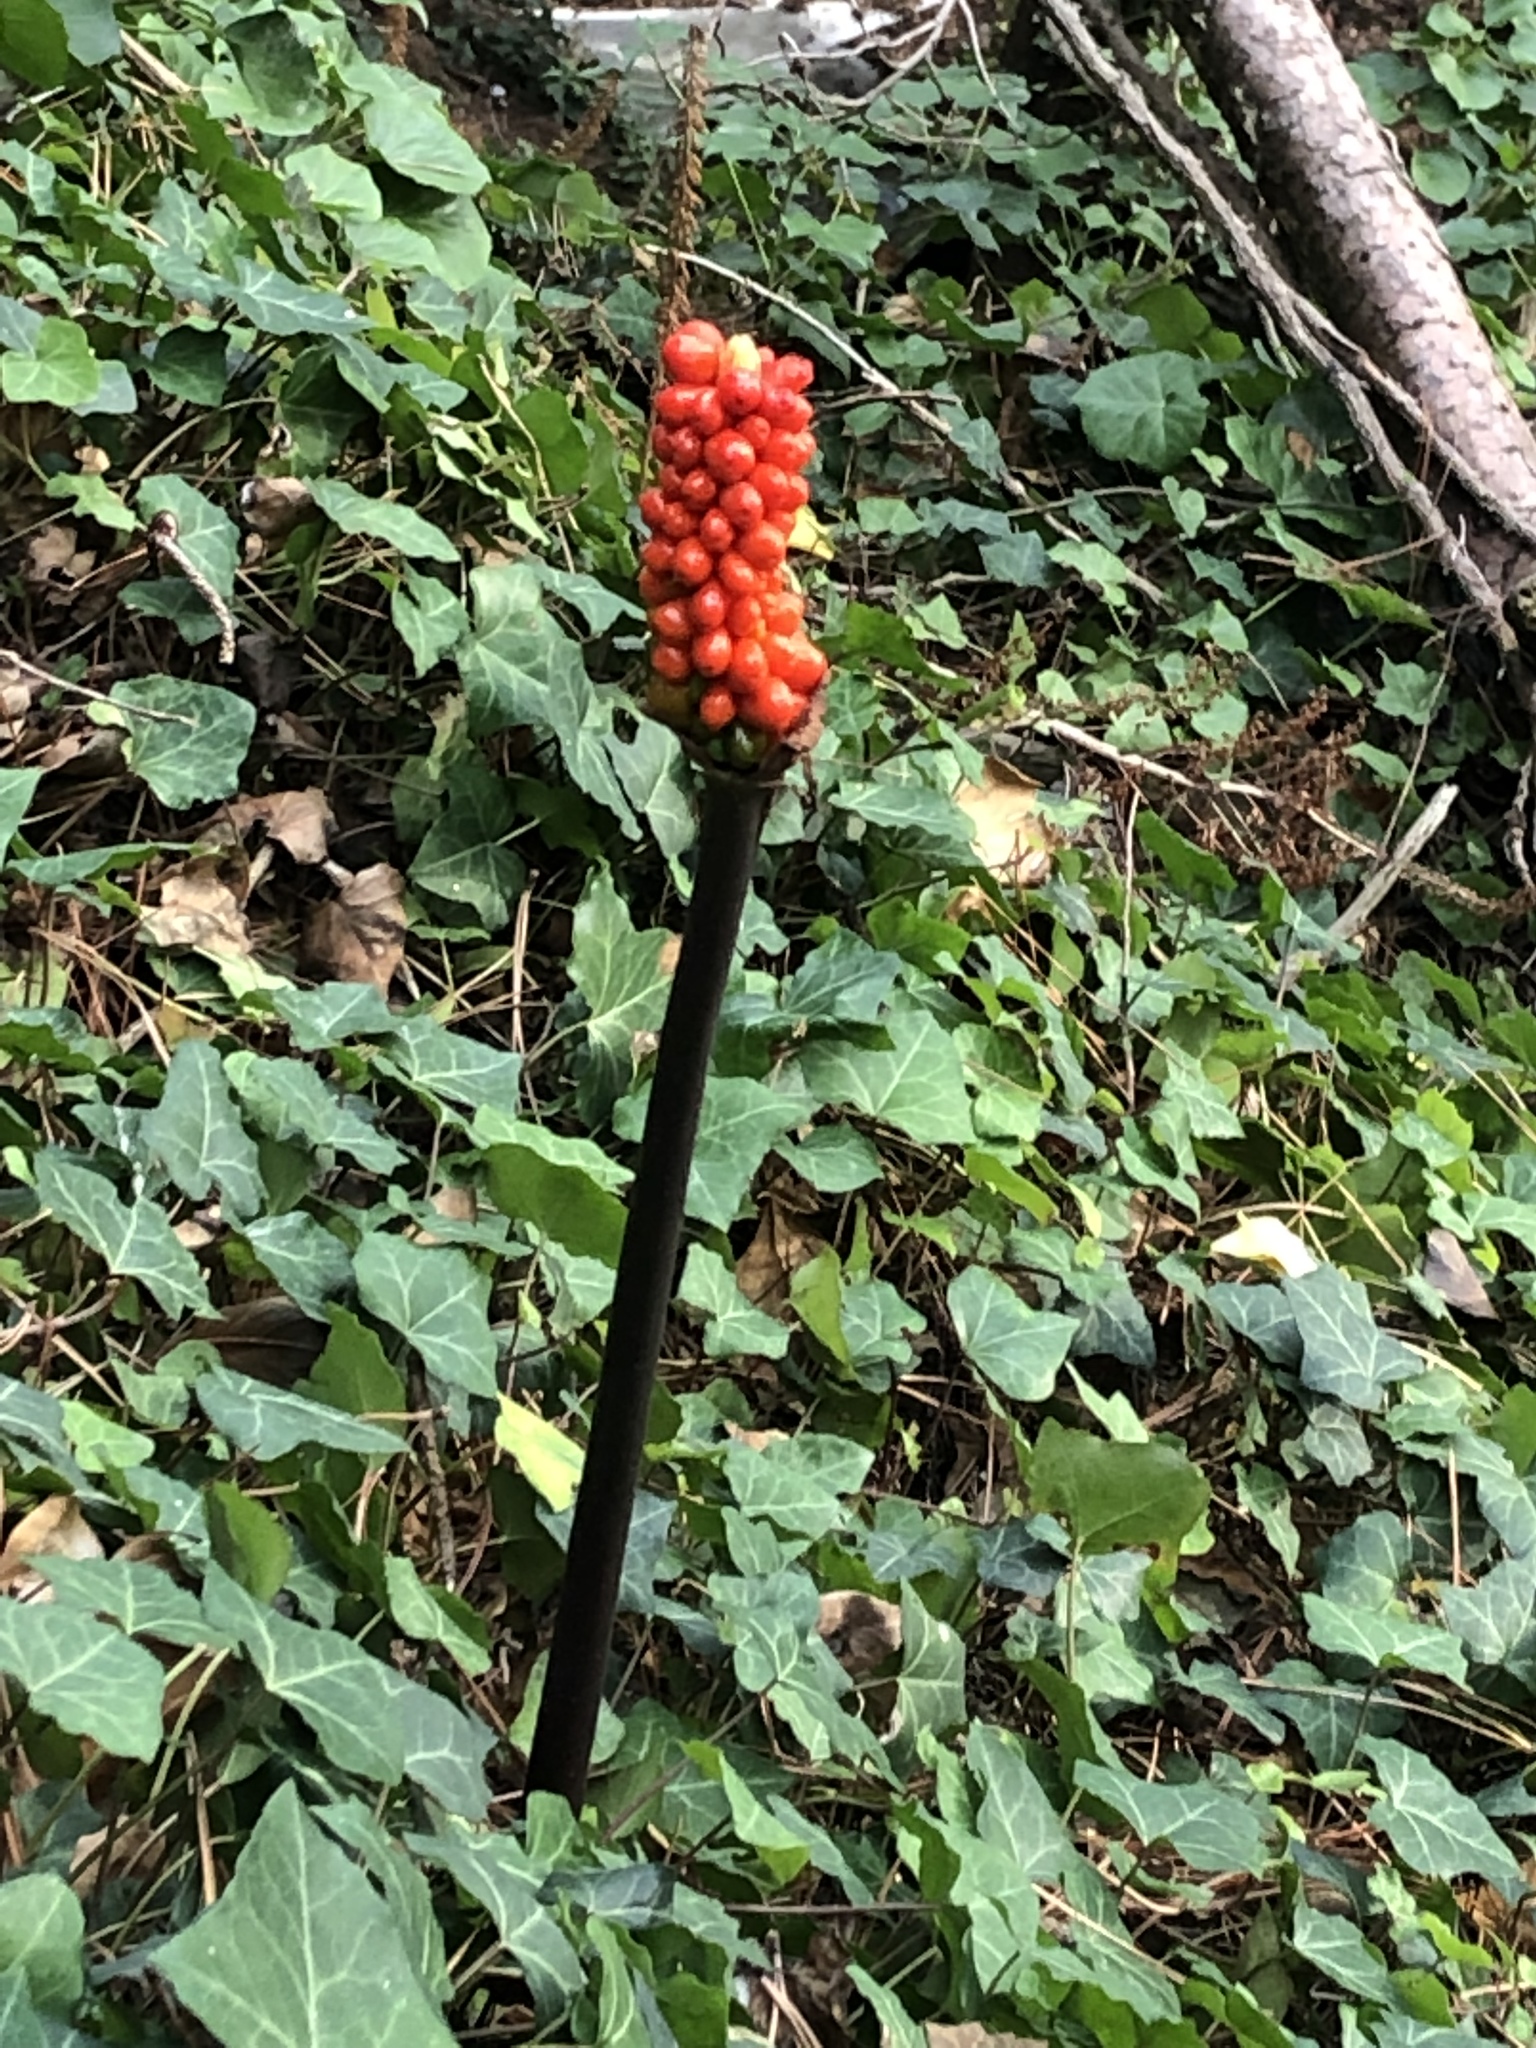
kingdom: Plantae
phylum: Tracheophyta
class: Liliopsida
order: Alismatales
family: Araceae
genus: Arum
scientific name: Arum
